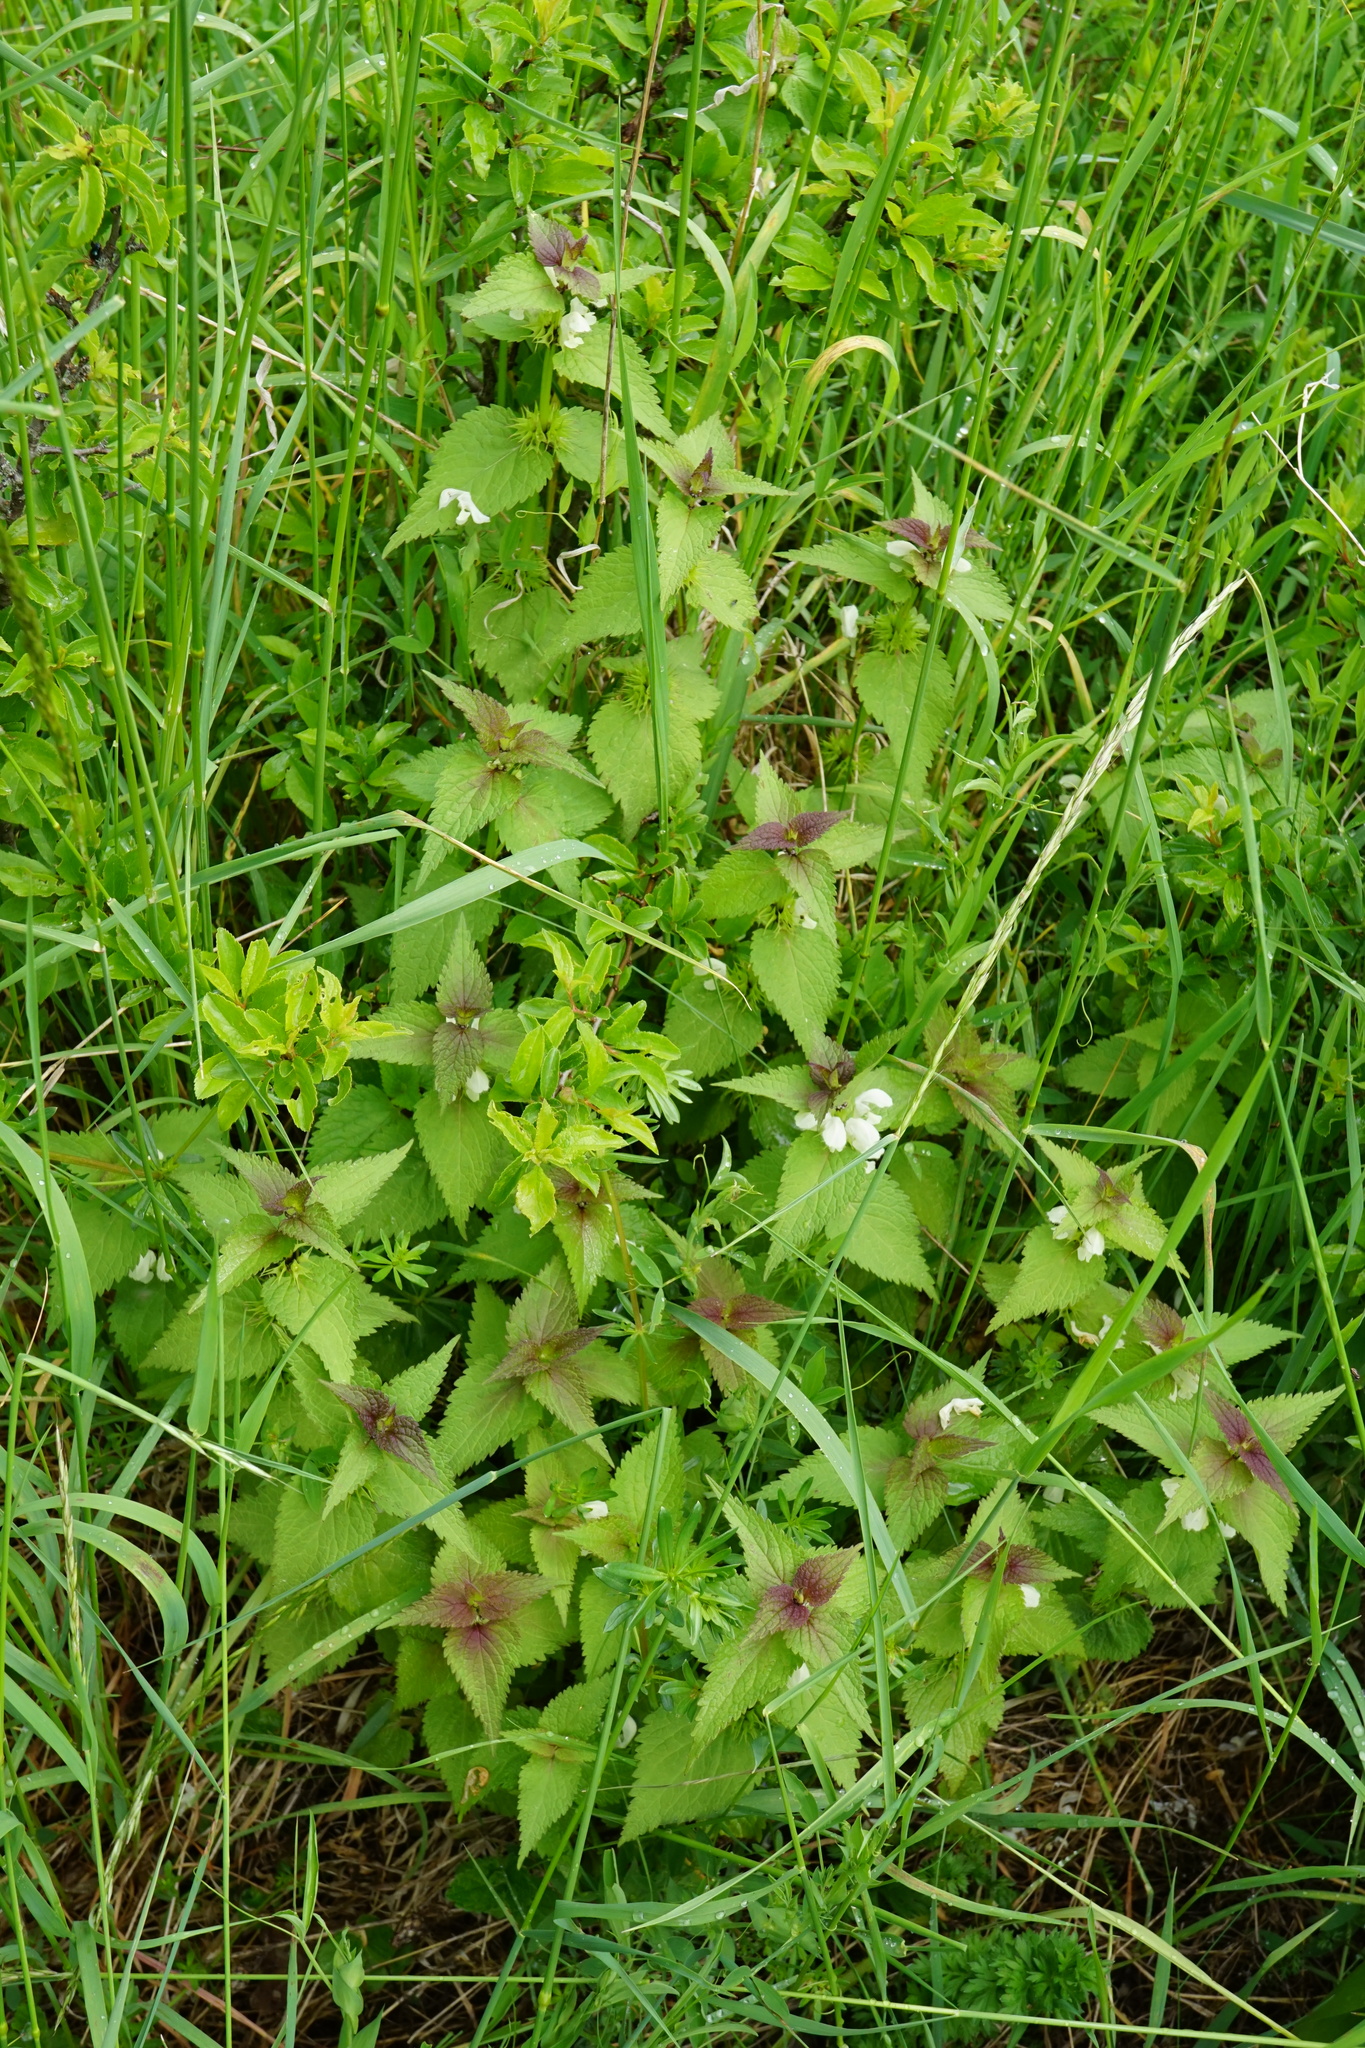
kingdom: Plantae
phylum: Tracheophyta
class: Magnoliopsida
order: Lamiales
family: Lamiaceae
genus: Lamium
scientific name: Lamium album
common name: White dead-nettle
